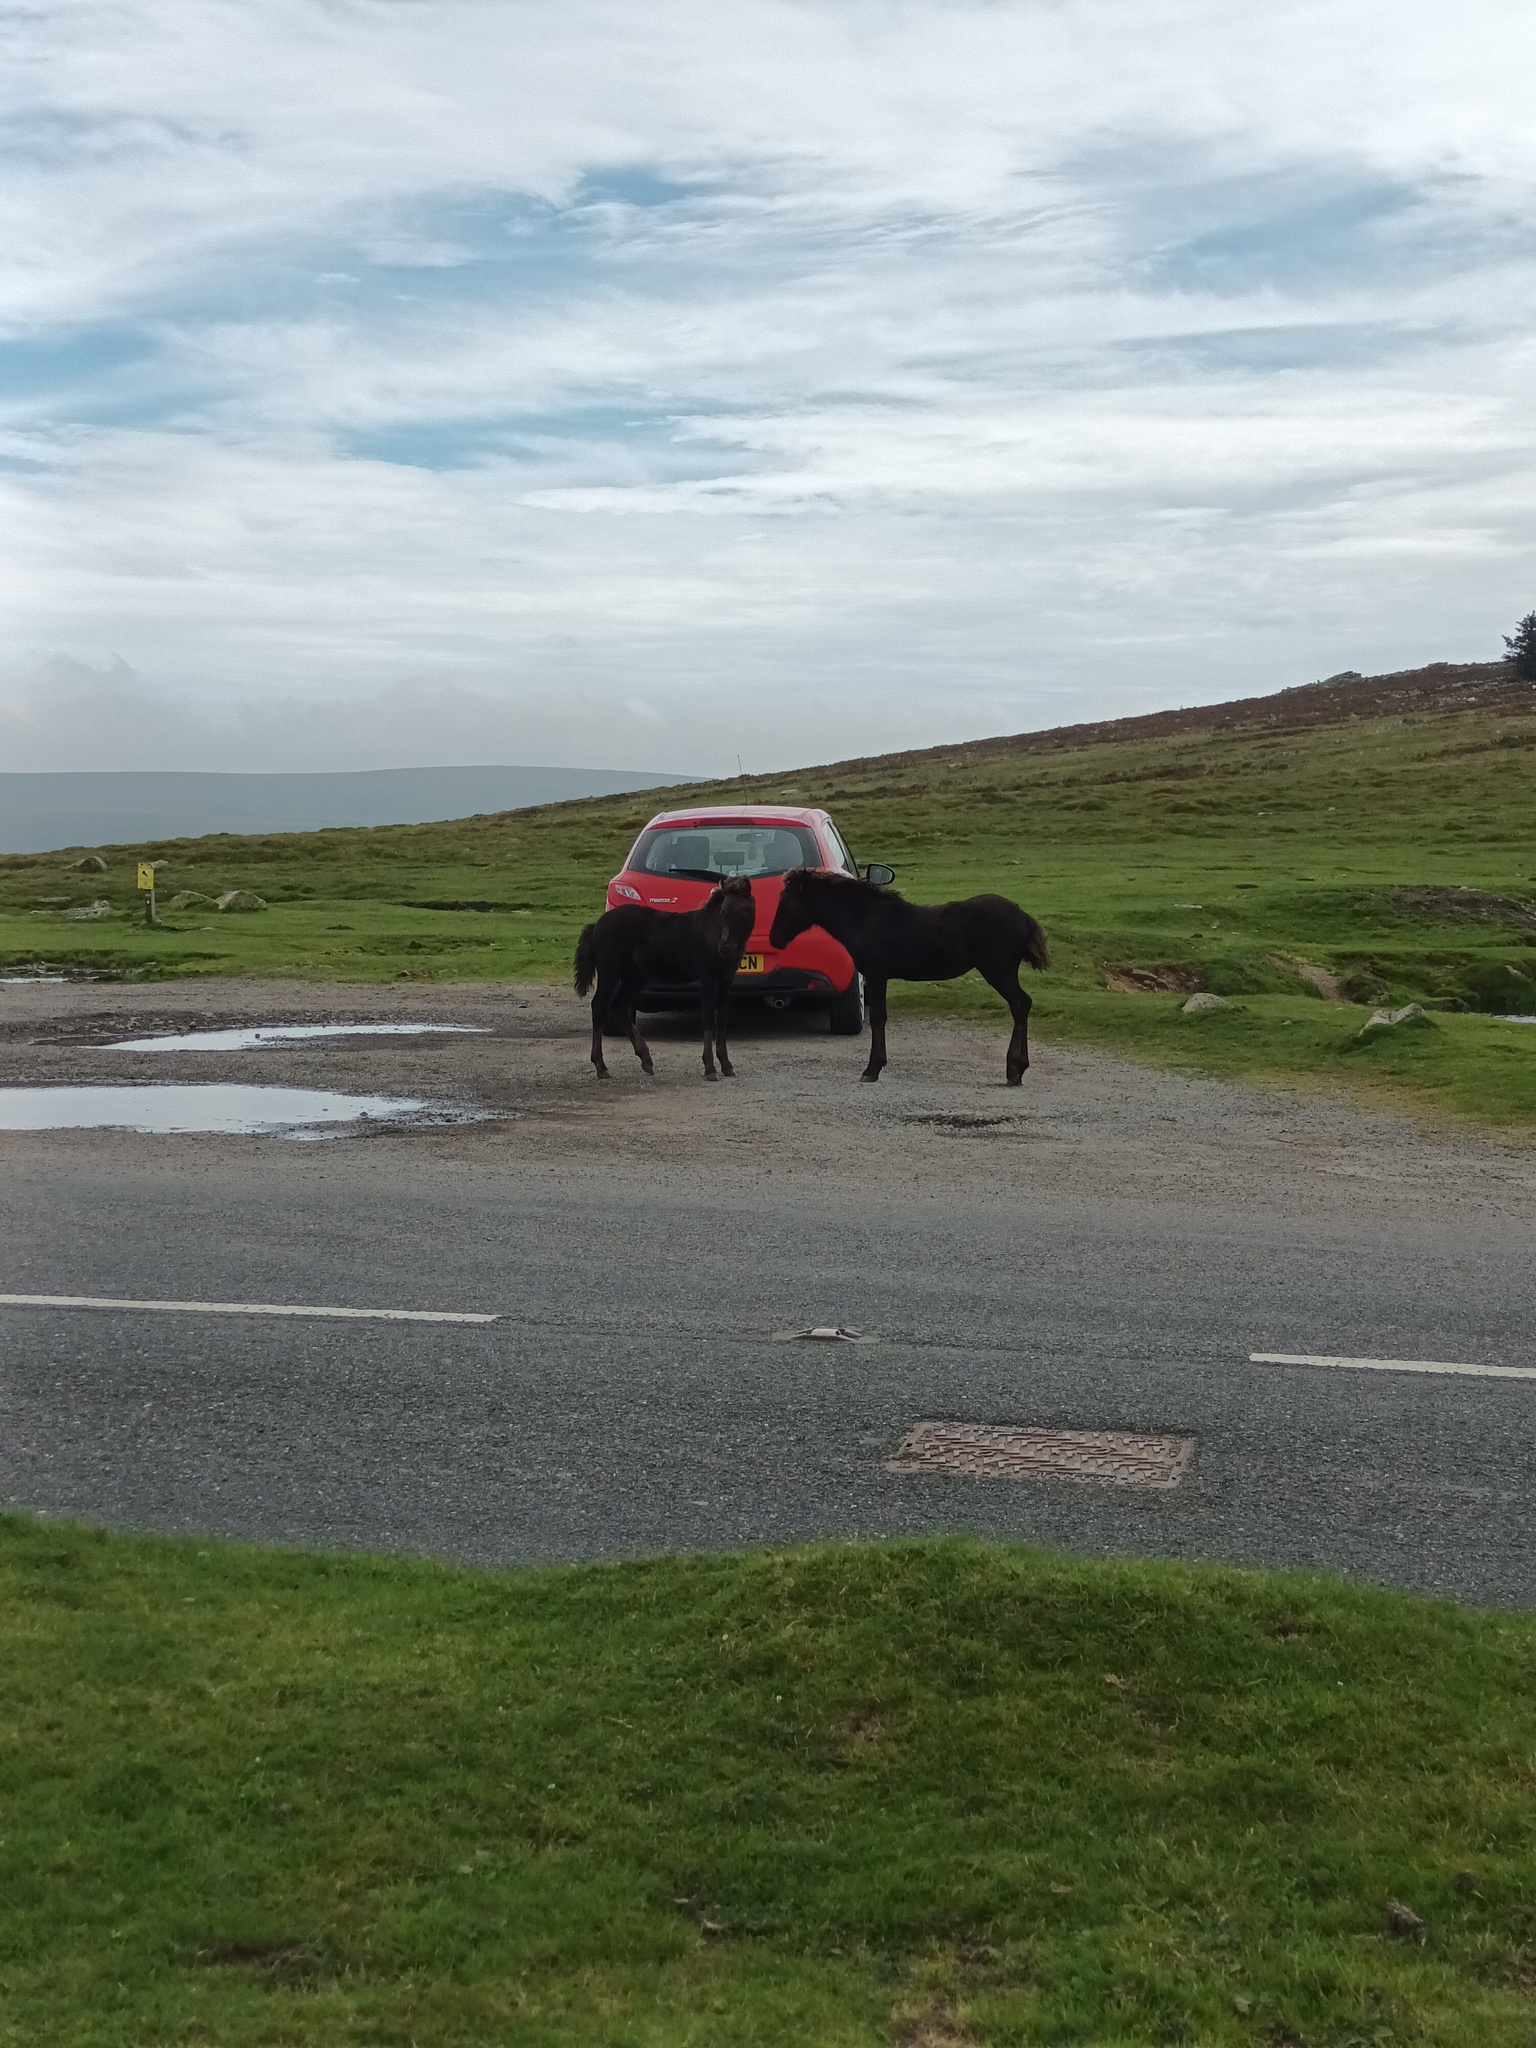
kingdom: Animalia
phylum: Chordata
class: Mammalia
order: Perissodactyla
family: Equidae
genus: Equus
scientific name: Equus caballus
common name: Horse
